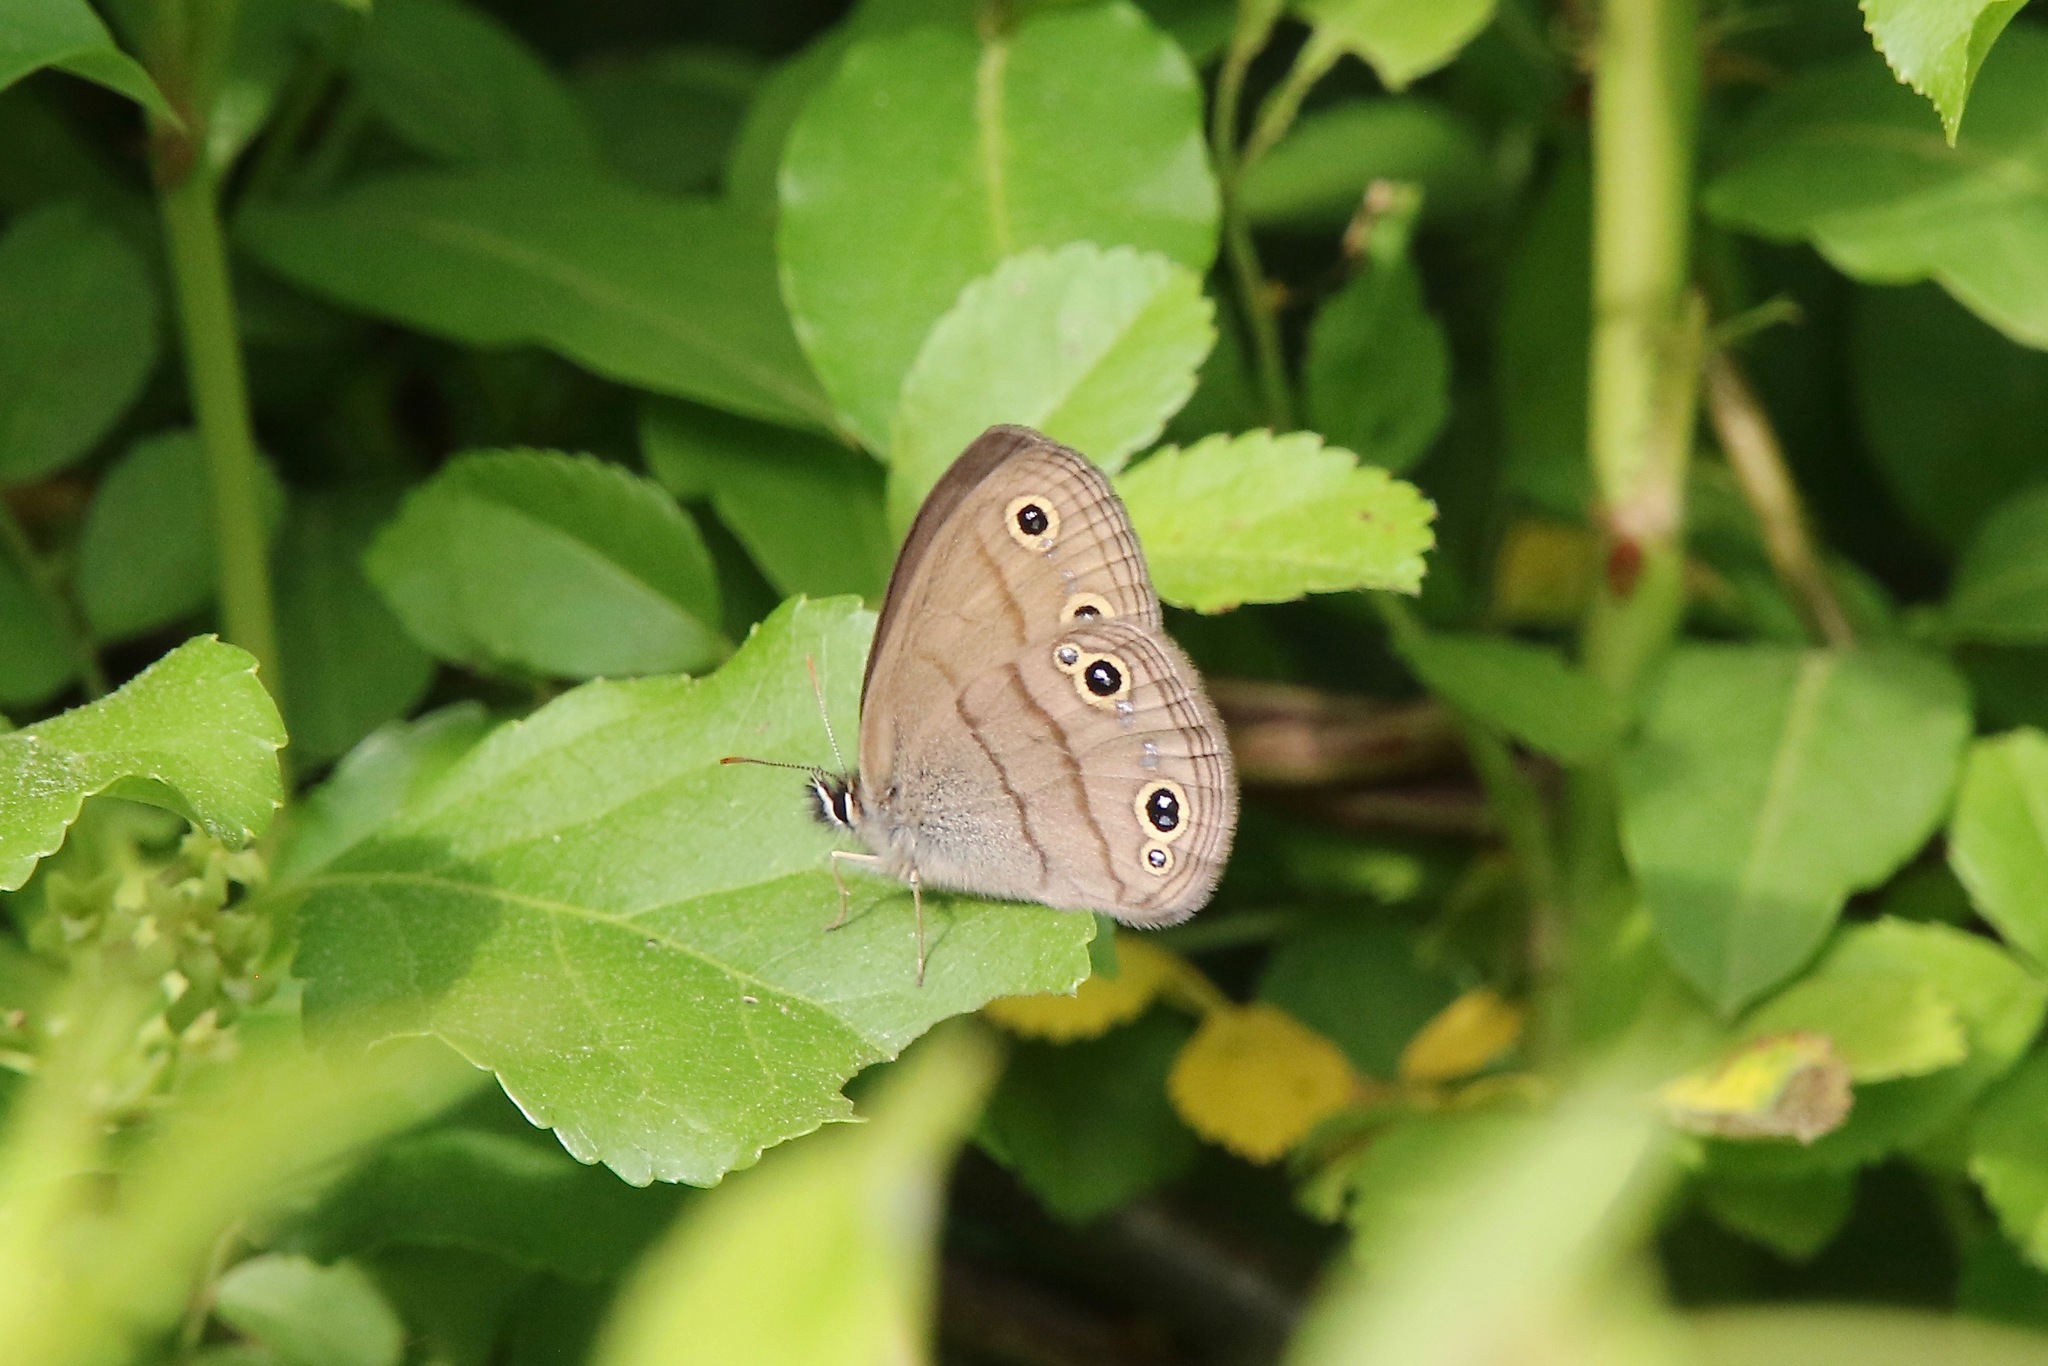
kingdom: Animalia
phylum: Arthropoda
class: Insecta
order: Lepidoptera
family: Nymphalidae
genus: Euptychia
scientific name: Euptychia cymela
